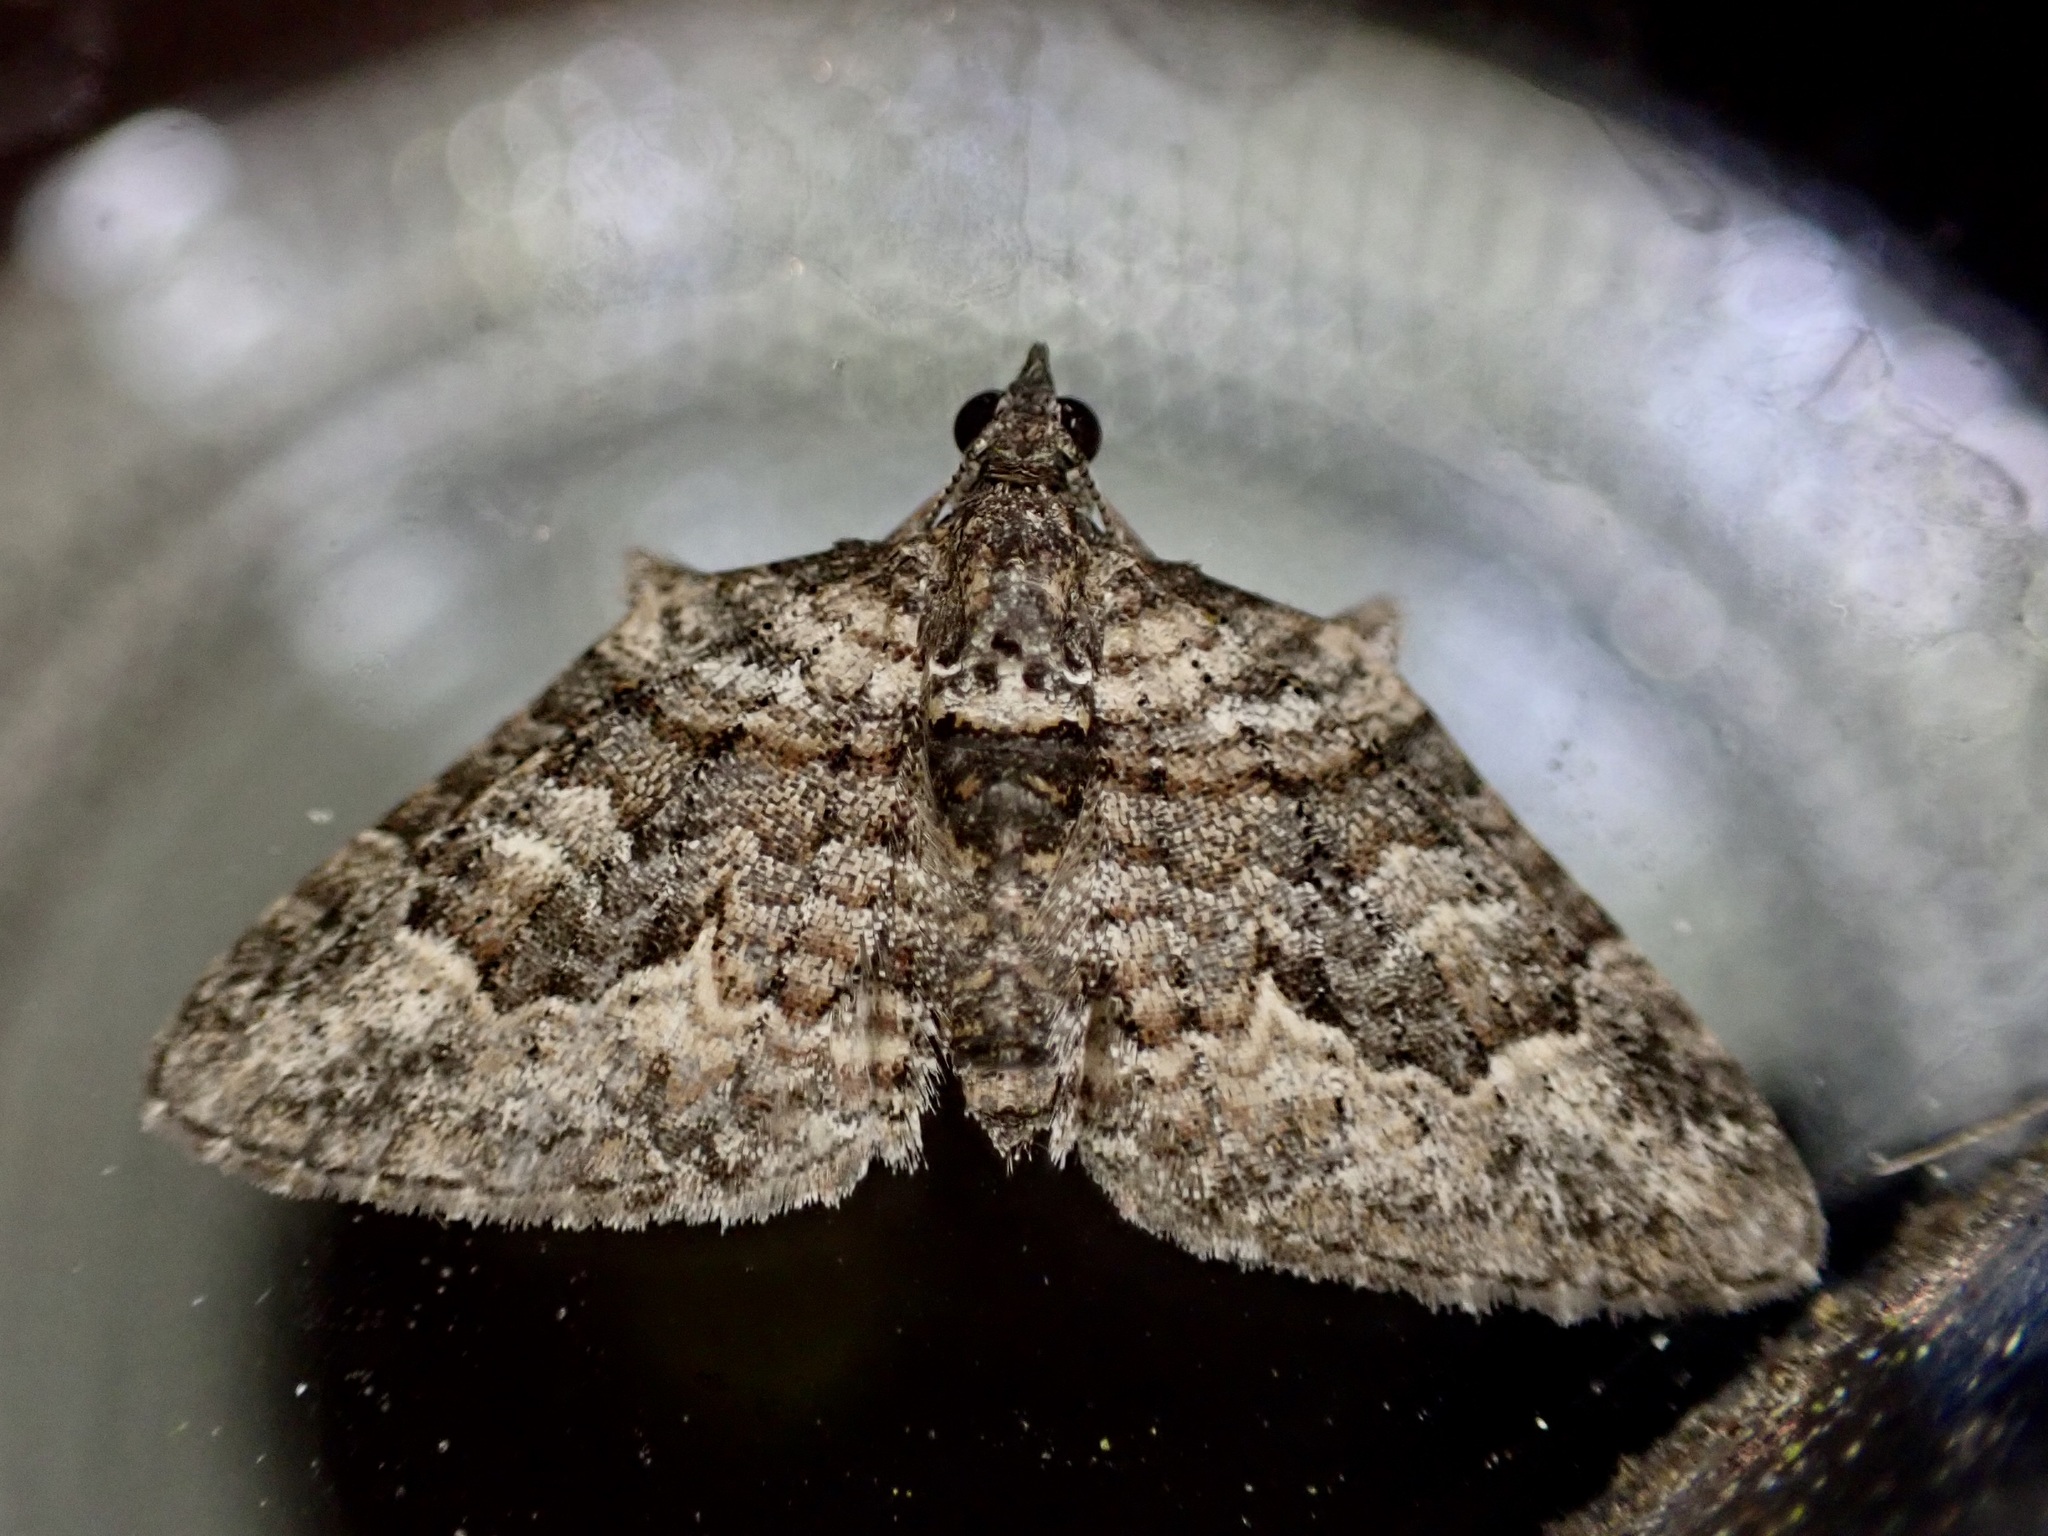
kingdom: Animalia
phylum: Arthropoda
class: Insecta
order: Lepidoptera
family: Geometridae
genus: Phrissogonus
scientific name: Phrissogonus laticostata
